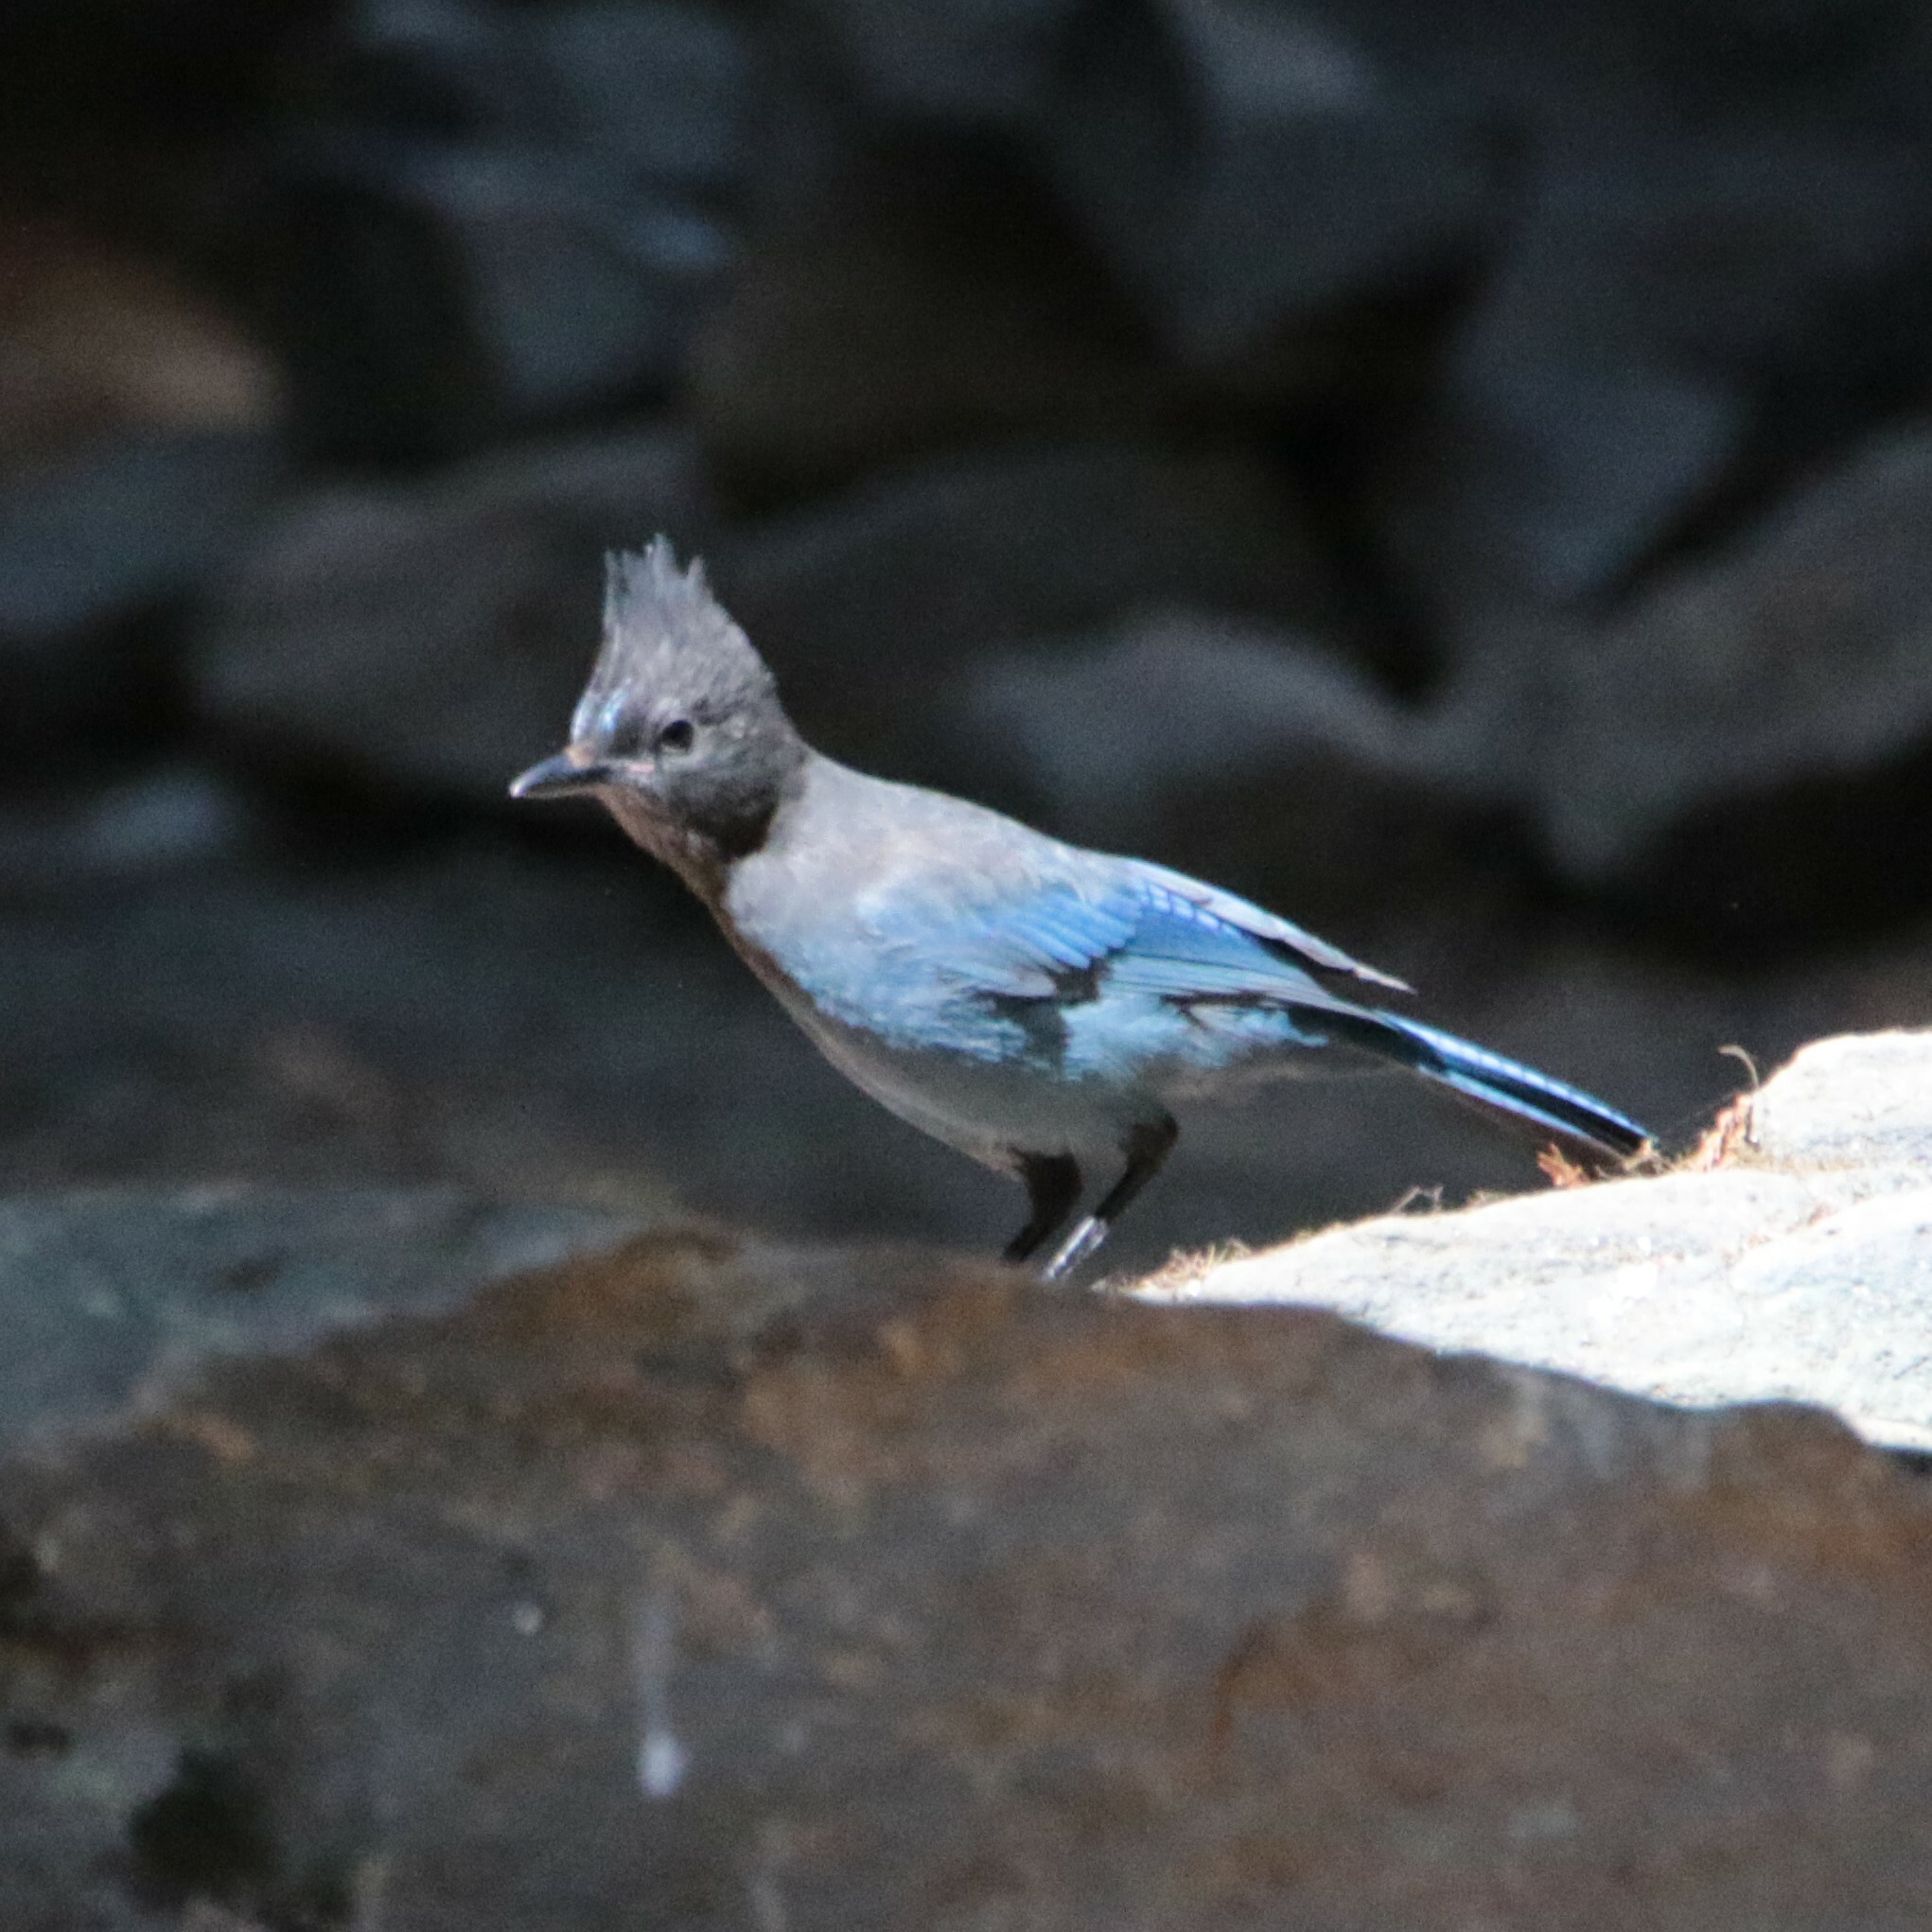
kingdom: Animalia
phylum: Chordata
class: Aves
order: Passeriformes
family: Corvidae
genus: Cyanocitta
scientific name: Cyanocitta stelleri
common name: Steller's jay
